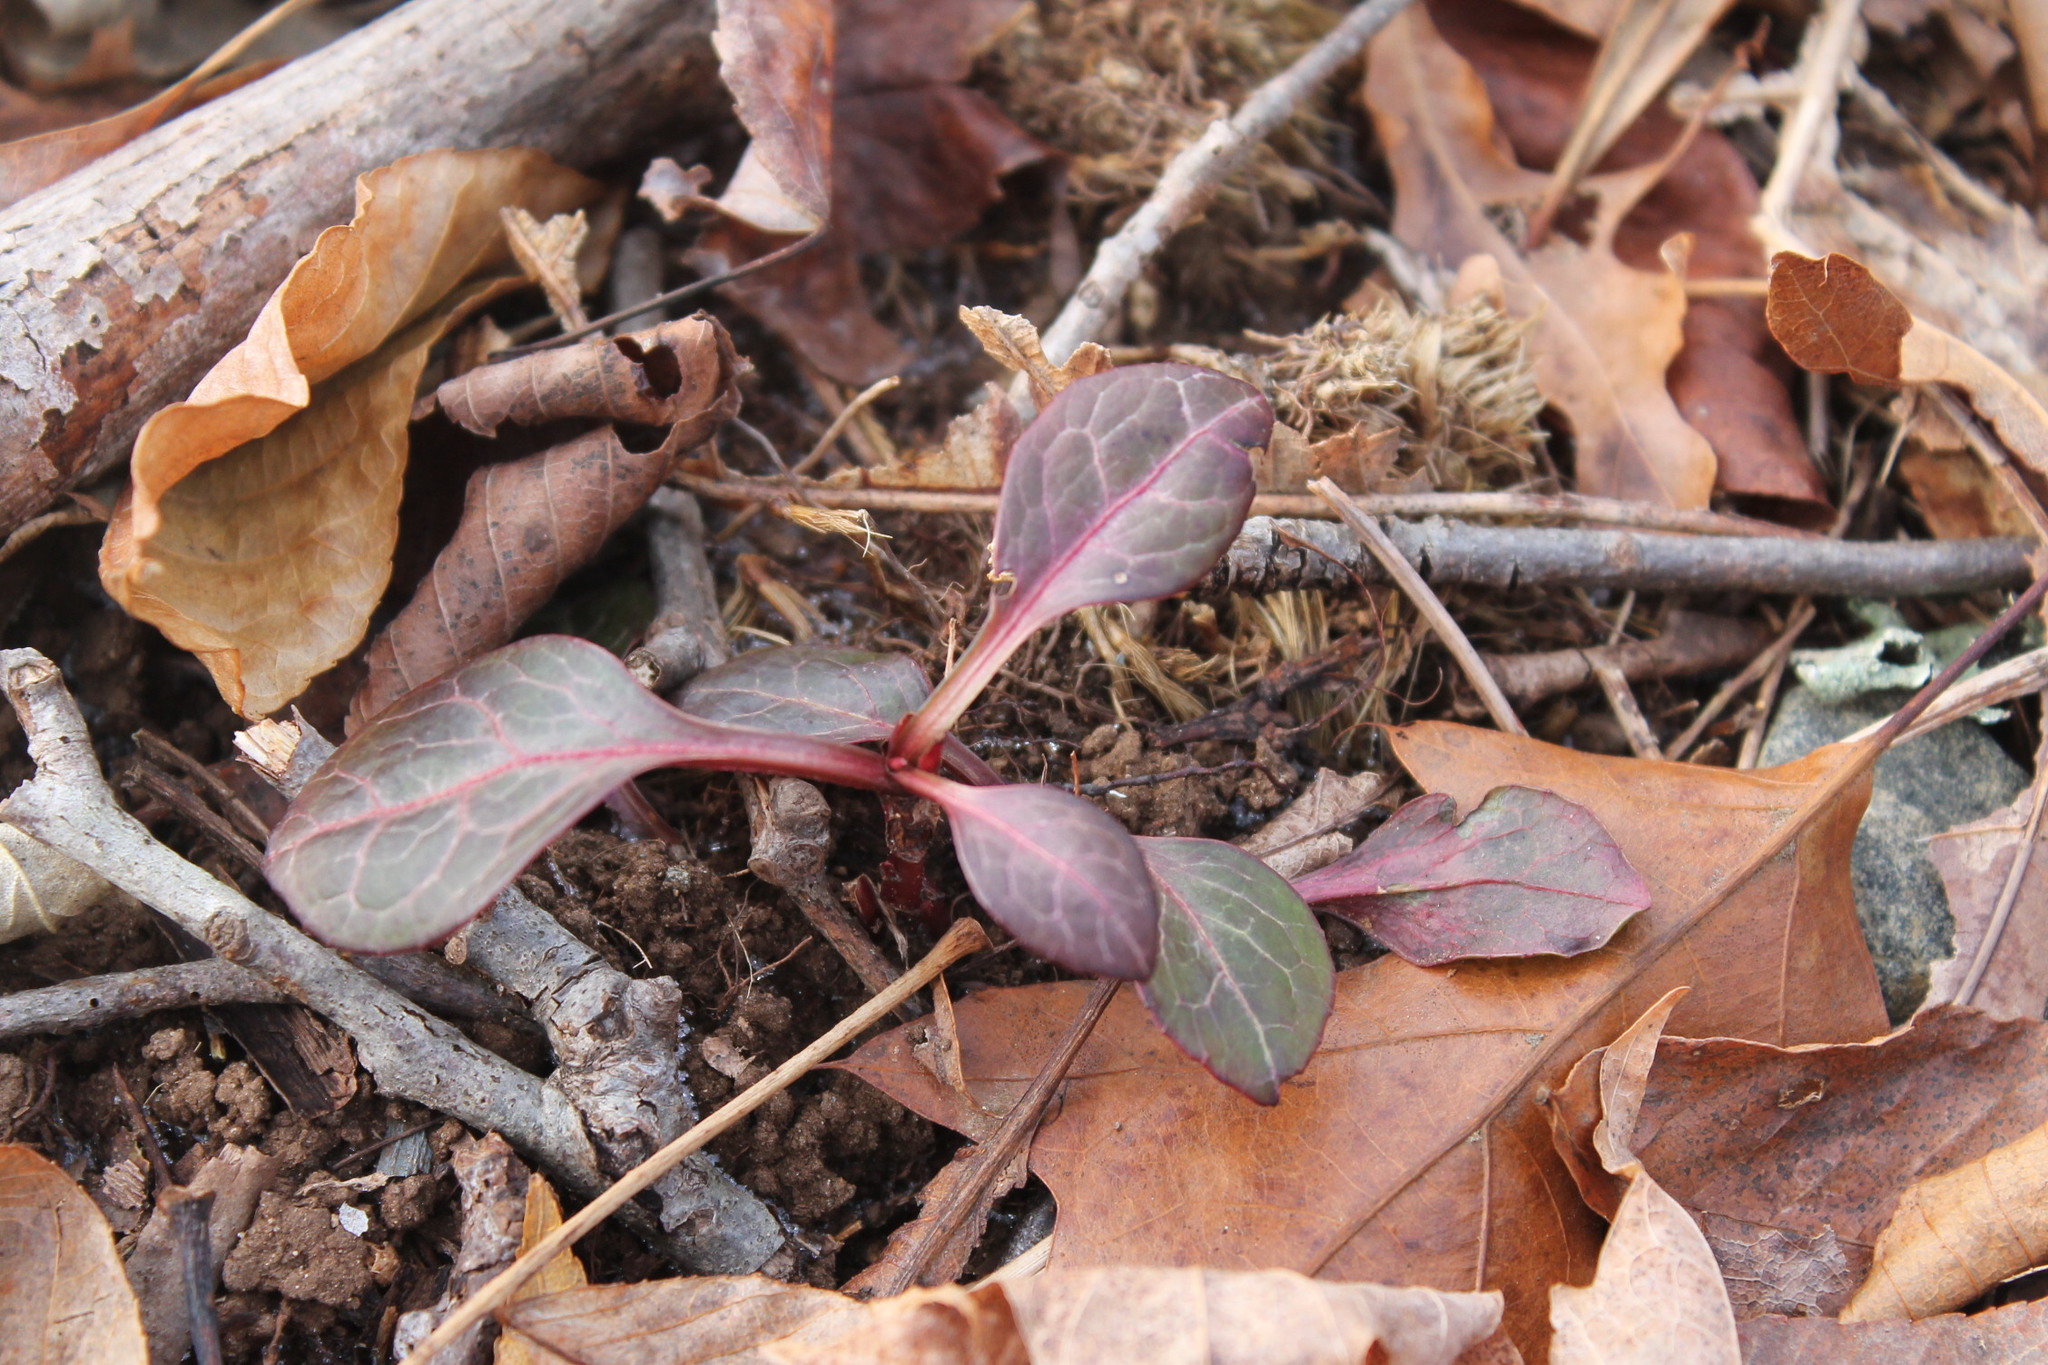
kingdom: Plantae
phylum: Tracheophyta
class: Magnoliopsida
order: Ericales
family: Ericaceae
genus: Pyrola
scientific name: Pyrola americana
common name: American wintergreen
